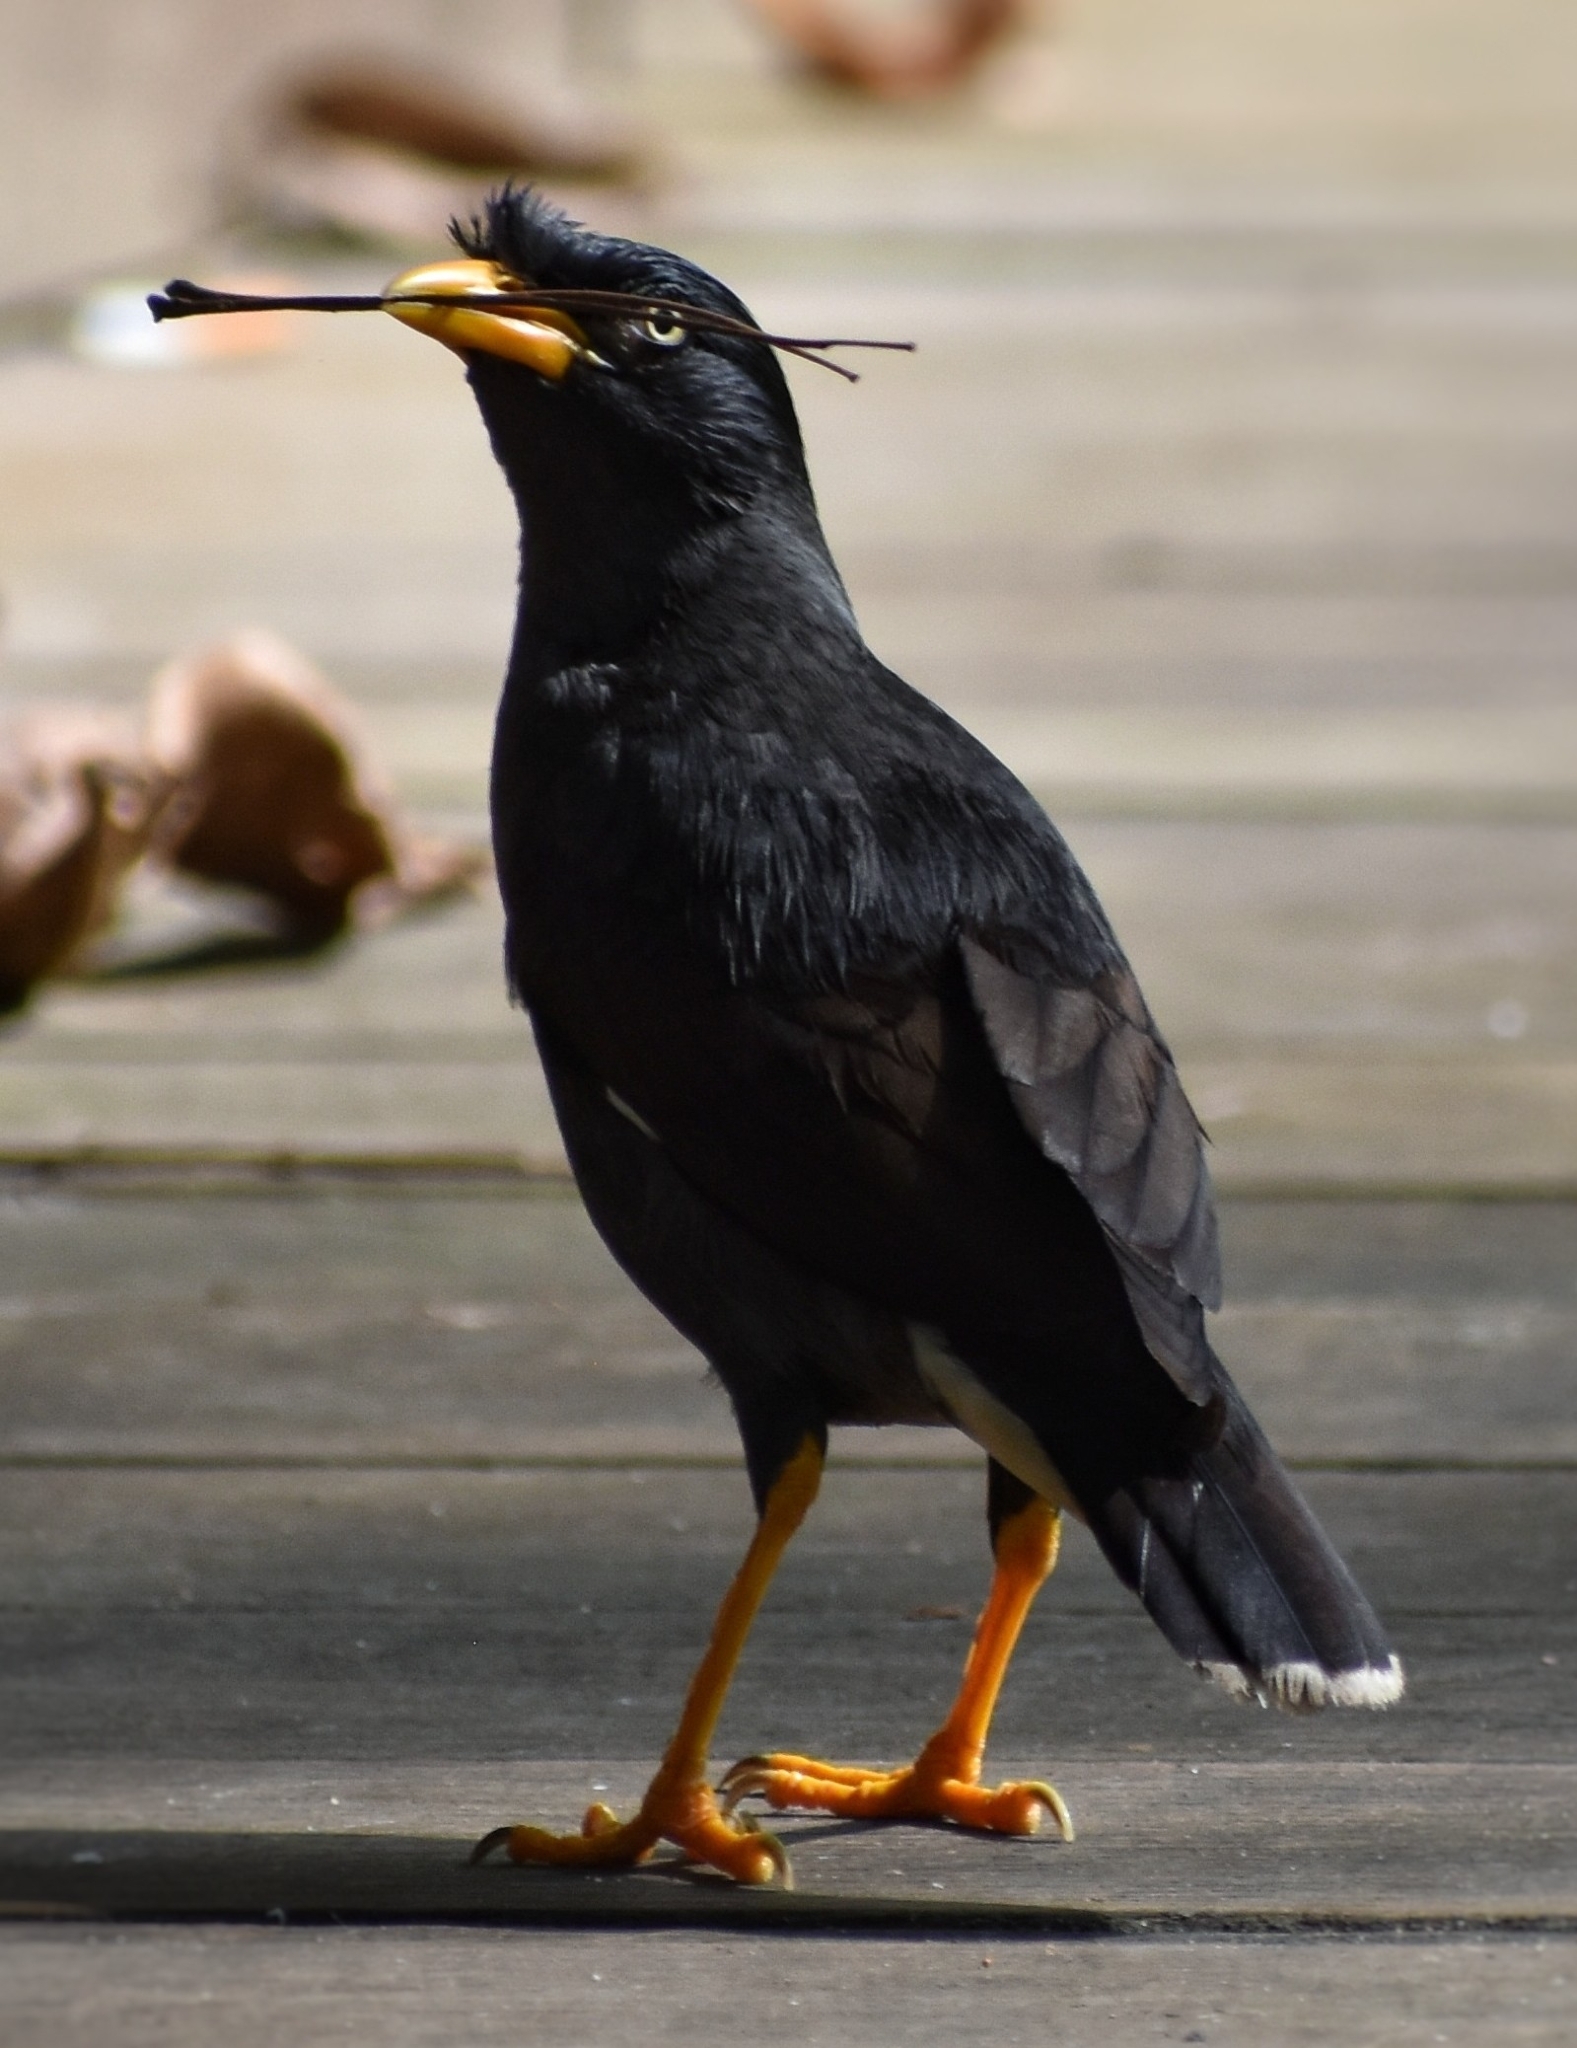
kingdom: Animalia
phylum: Chordata
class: Aves
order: Passeriformes
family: Sturnidae
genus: Acridotheres
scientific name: Acridotheres javanicus
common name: Javan myna
